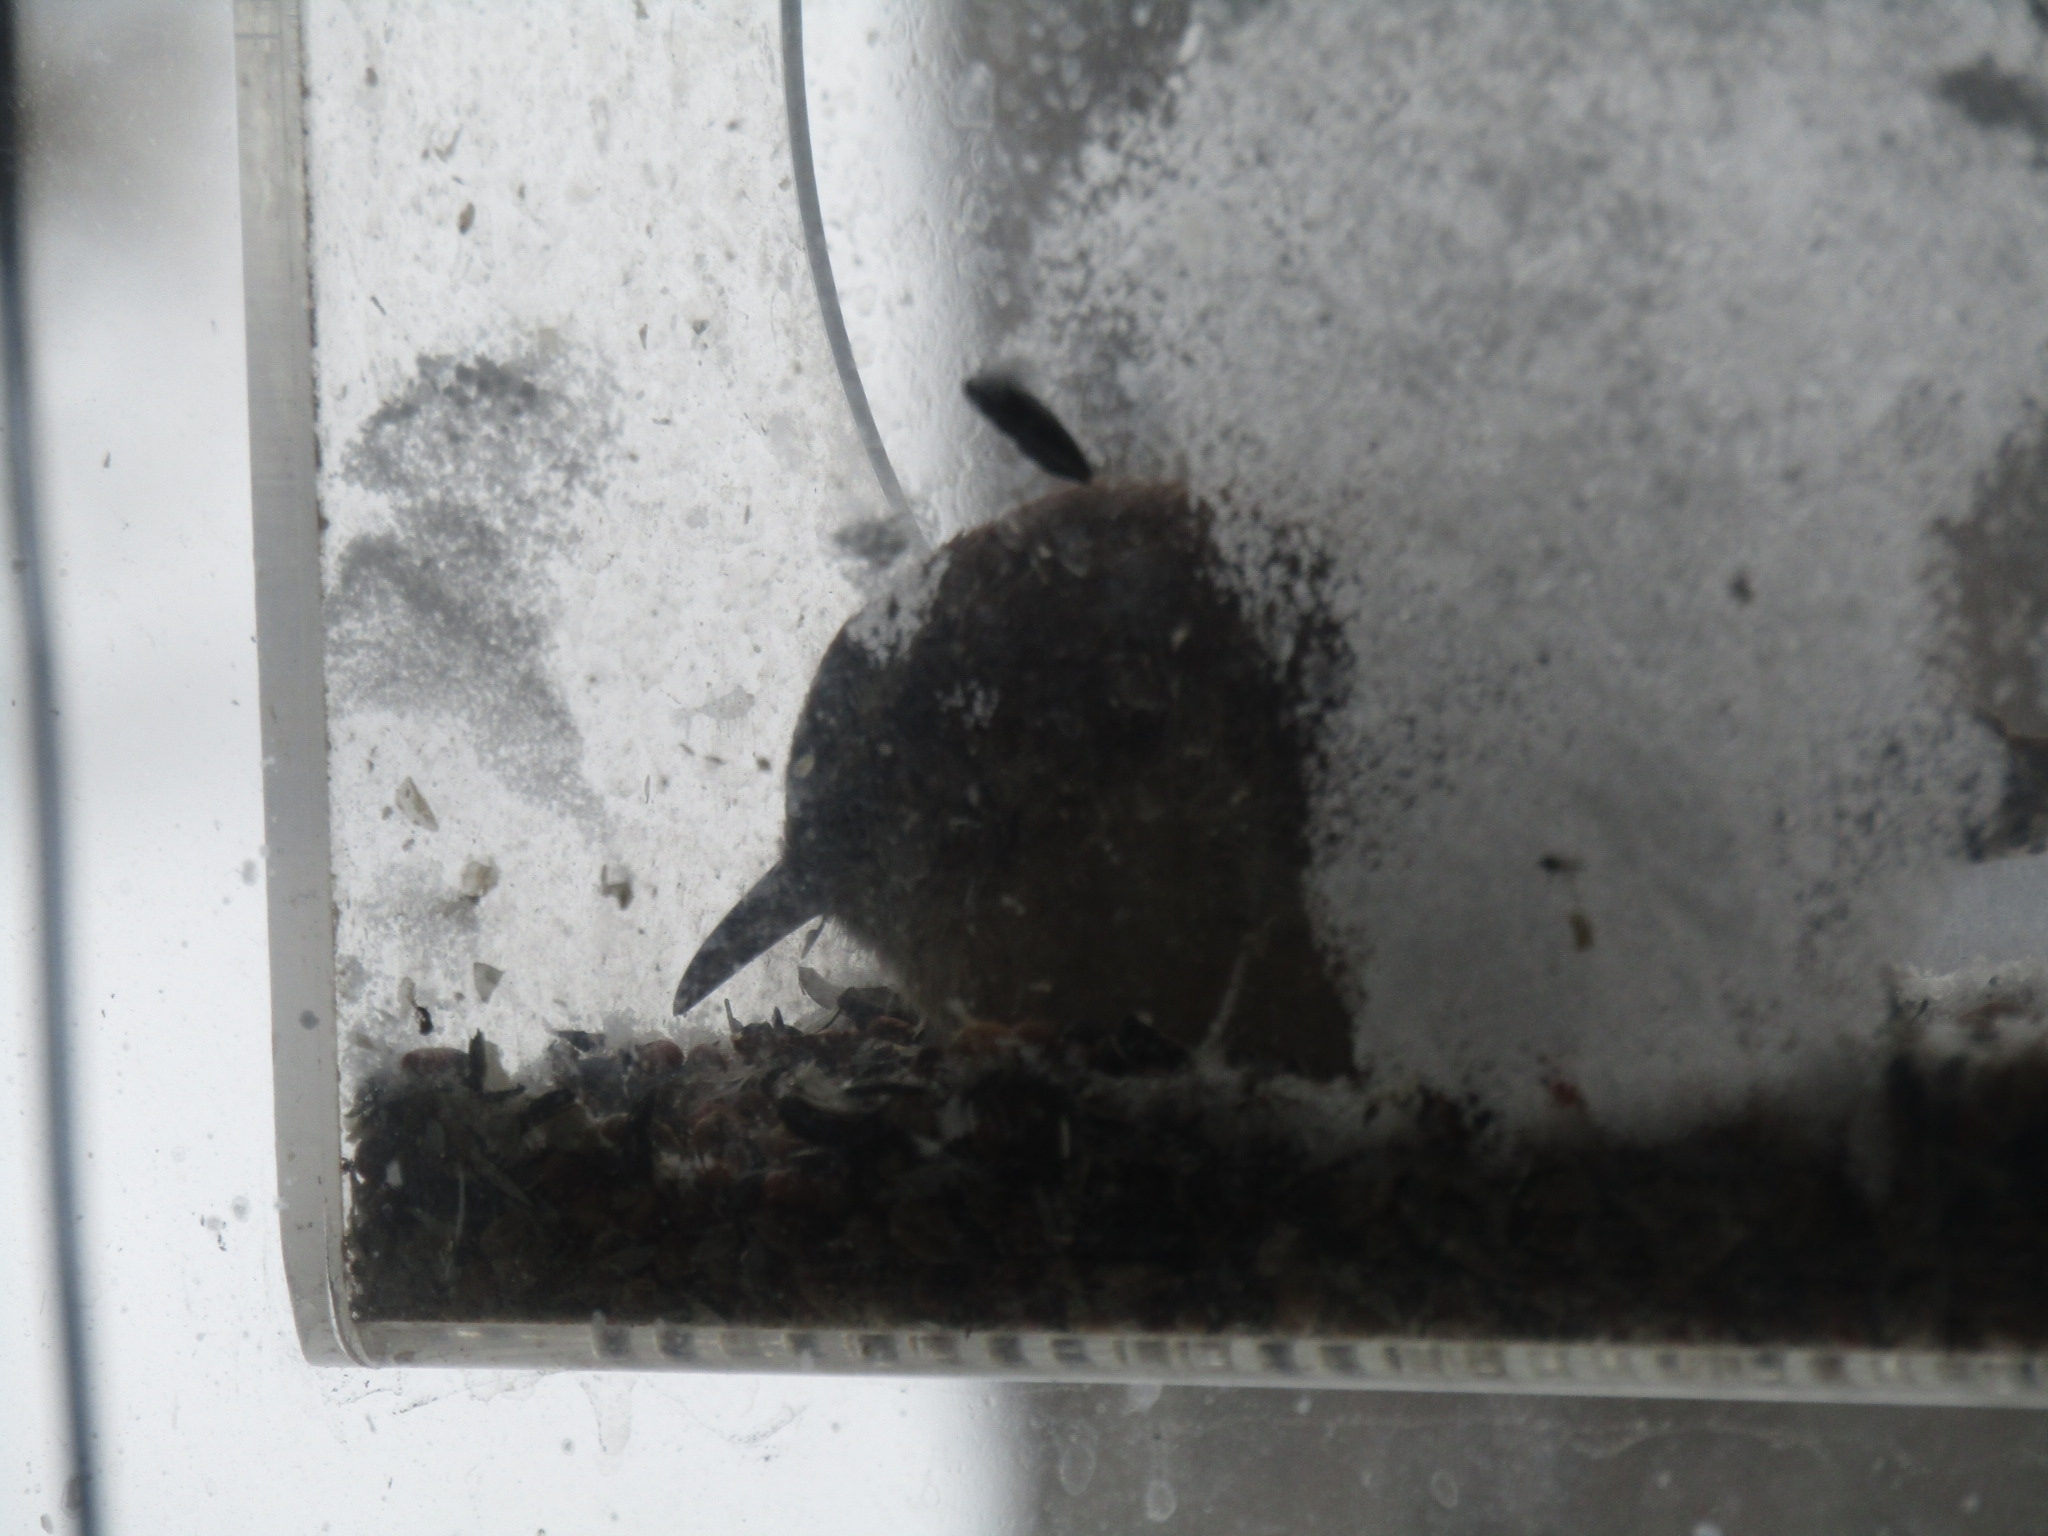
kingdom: Animalia
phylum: Chordata
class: Aves
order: Passeriformes
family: Troglodytidae
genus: Thryothorus
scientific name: Thryothorus ludovicianus
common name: Carolina wren
